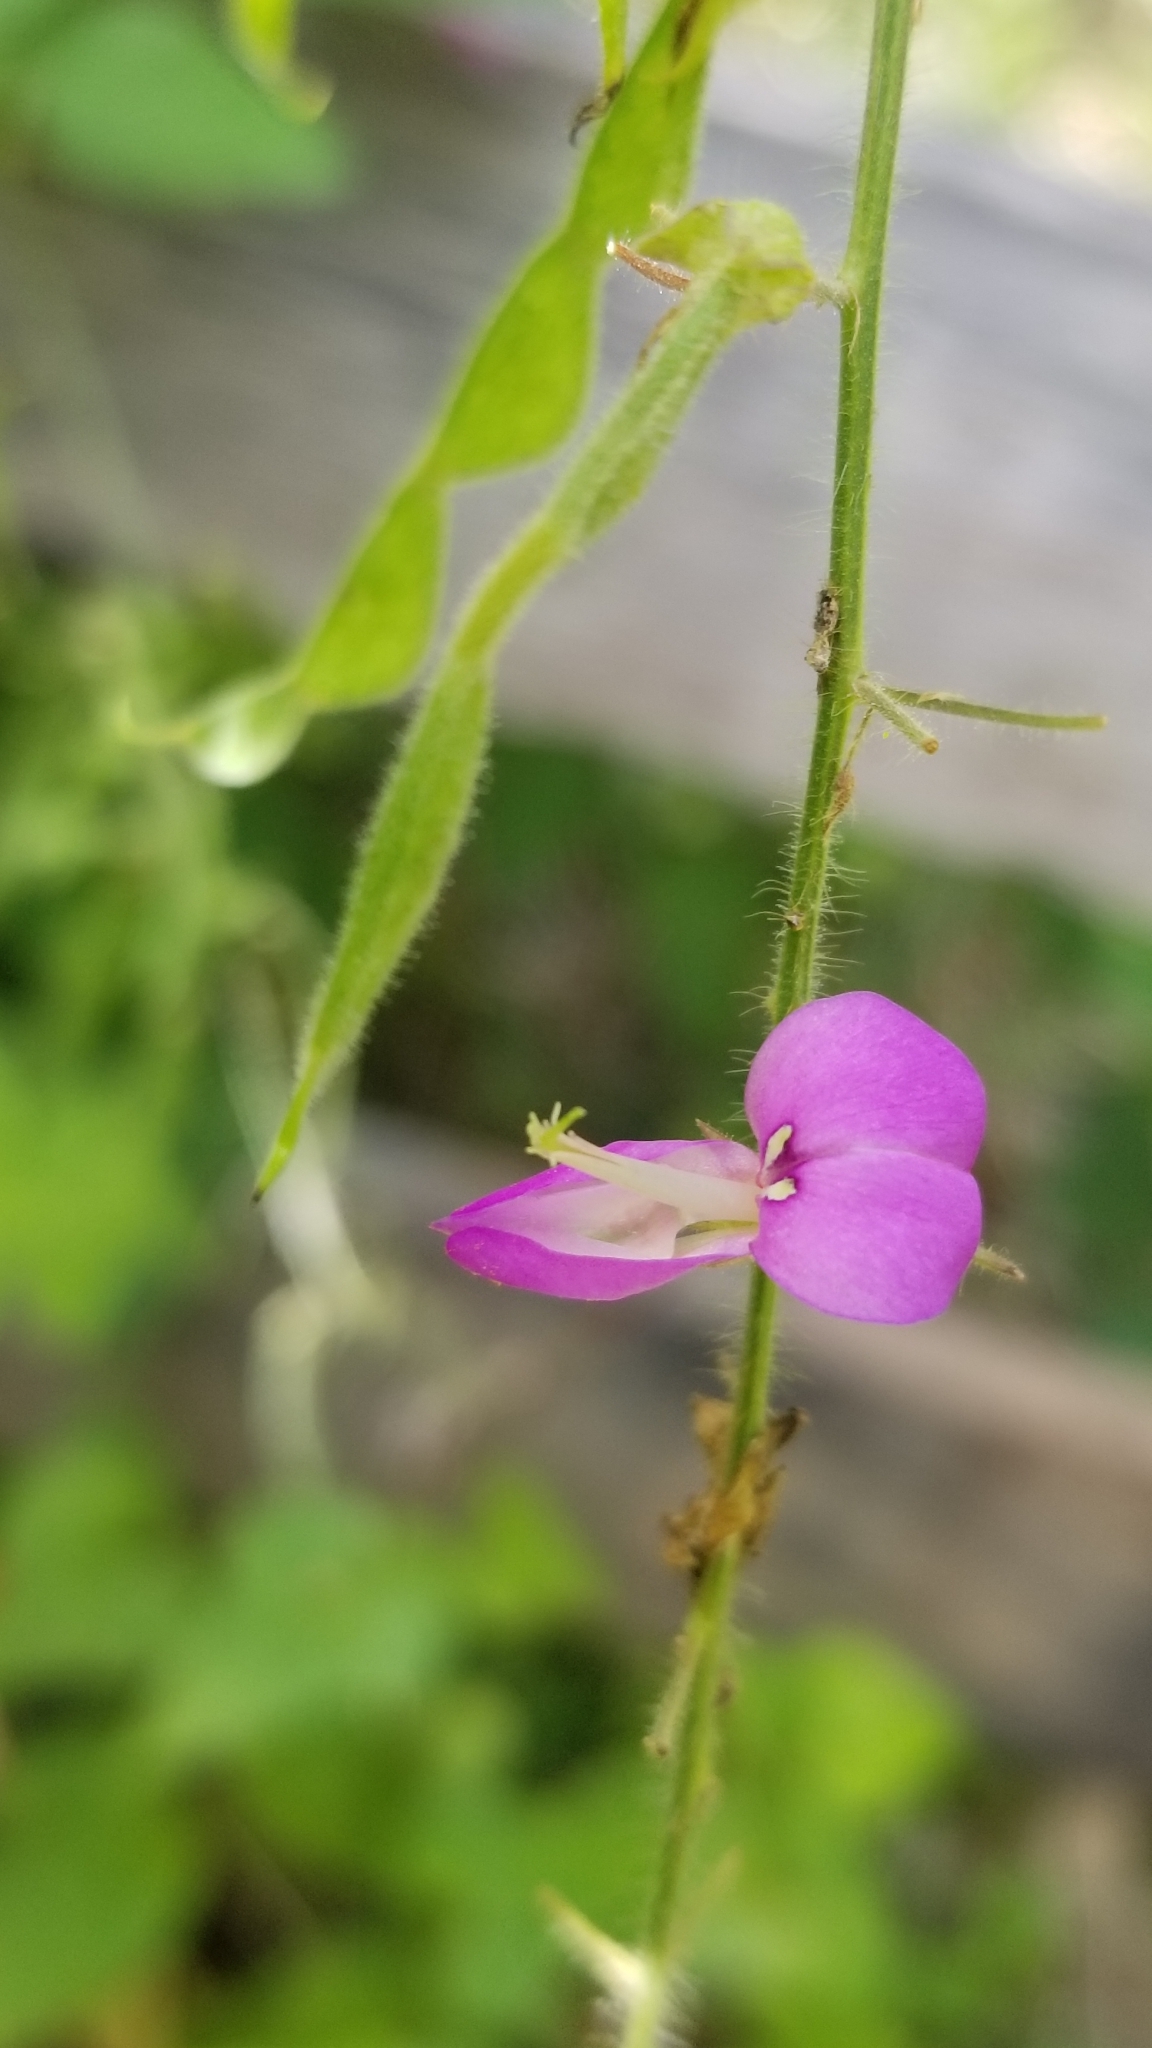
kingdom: Plantae
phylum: Tracheophyta
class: Magnoliopsida
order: Fabales
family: Fabaceae
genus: Desmodium
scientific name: Desmodium canescens
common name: Hoary tick-clover
